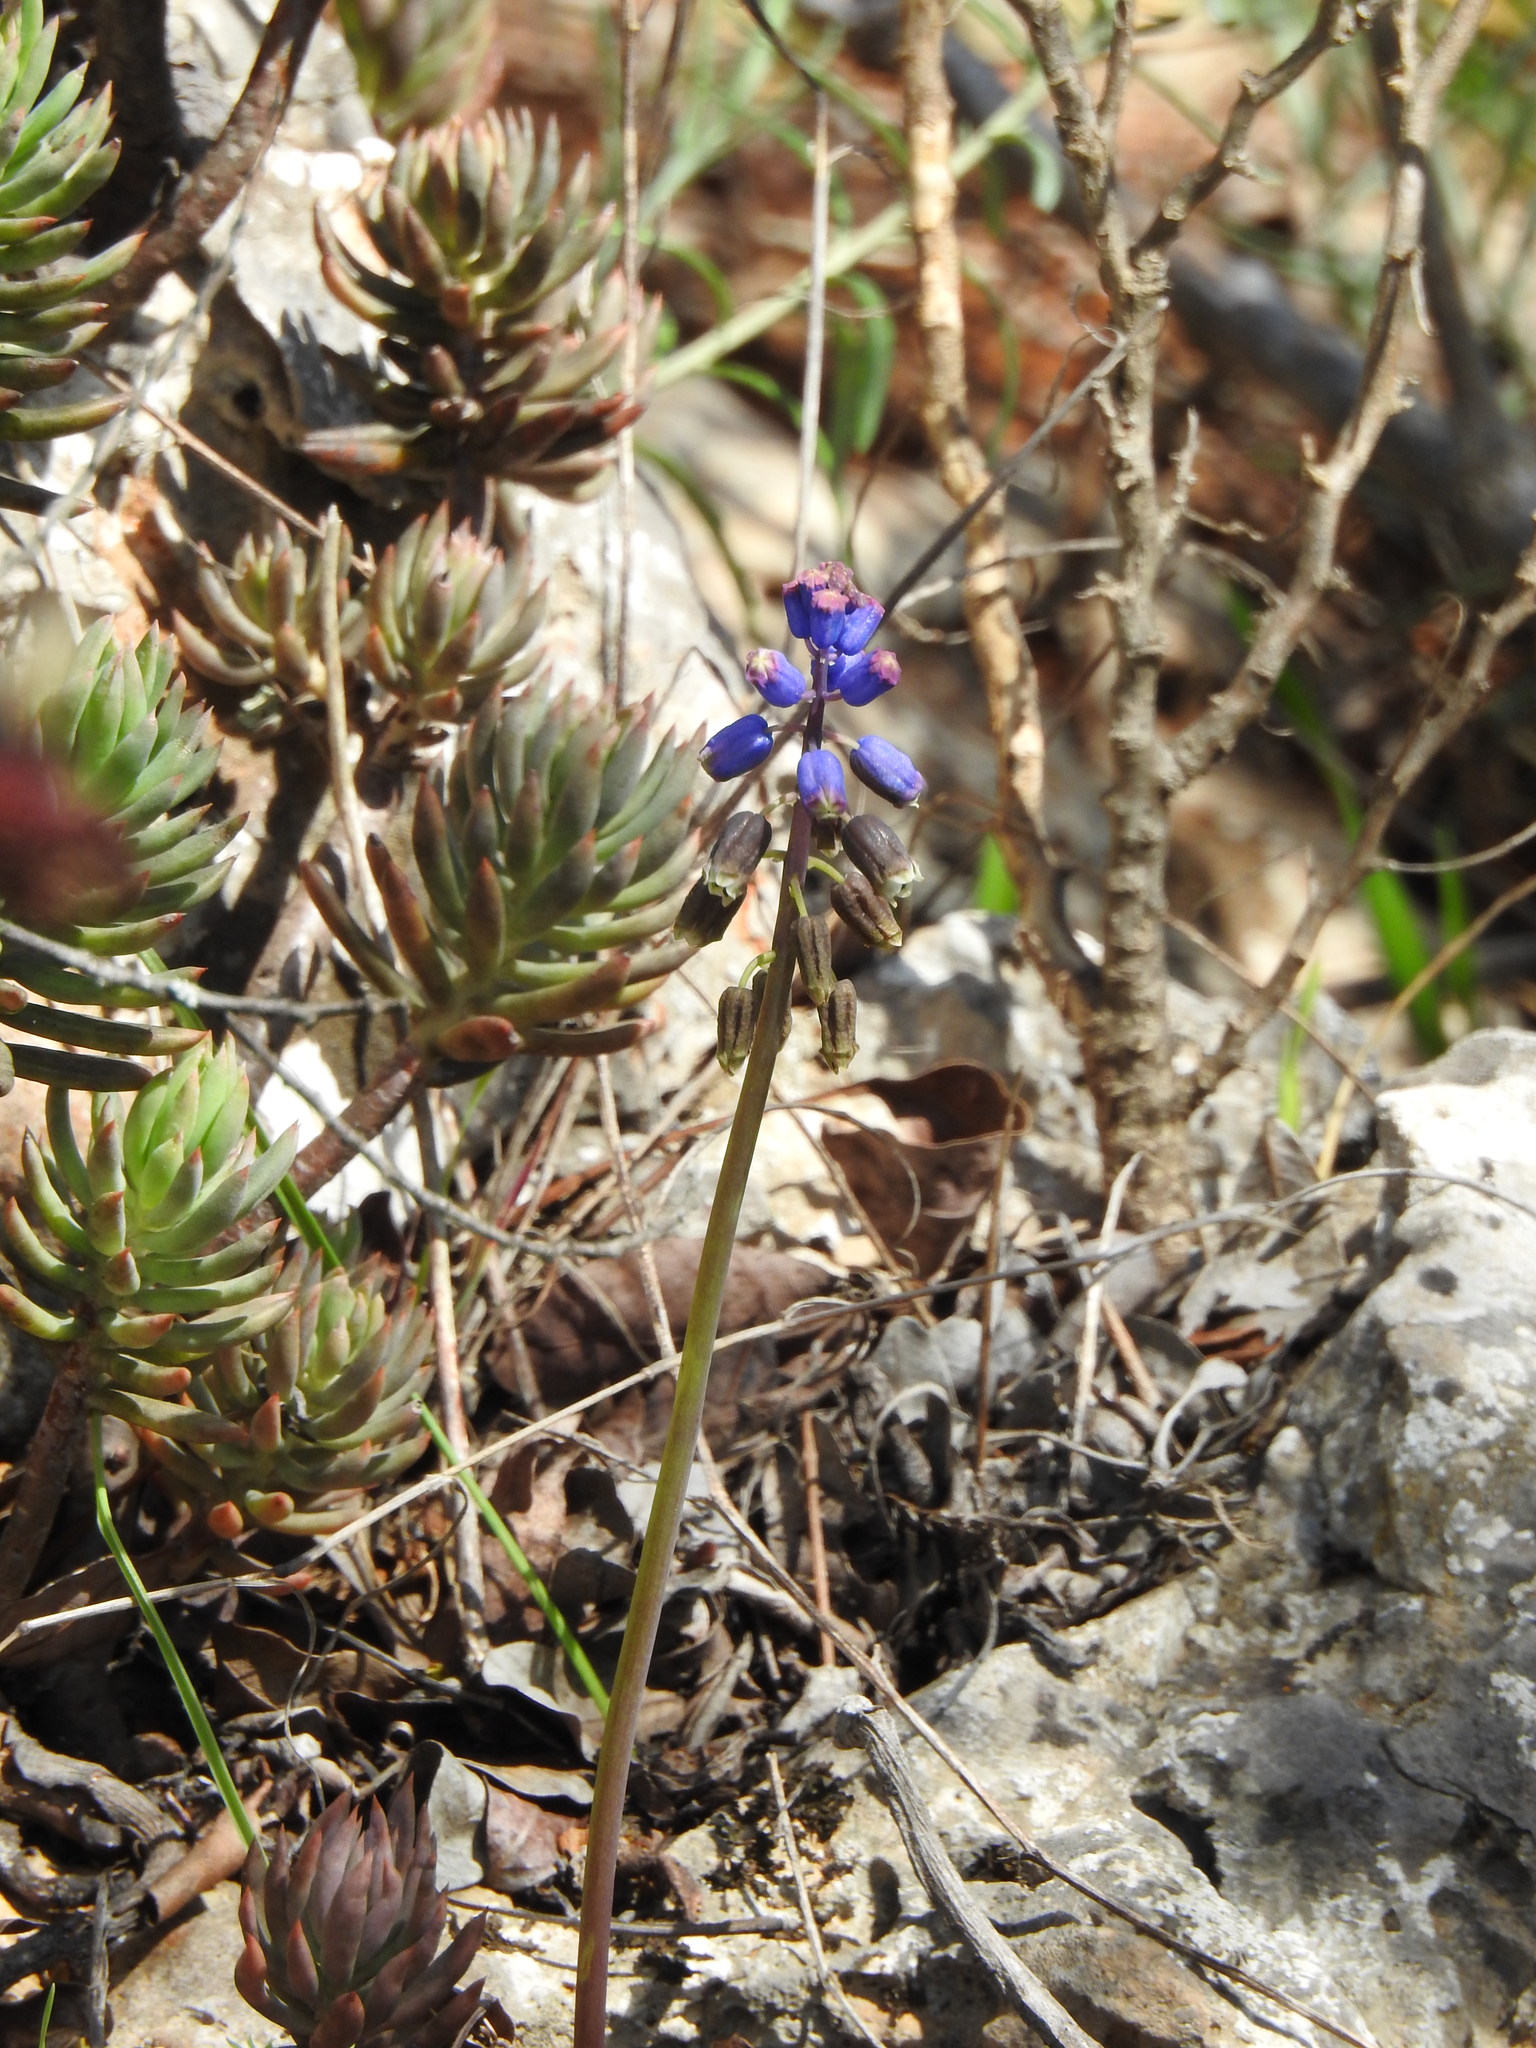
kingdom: Plantae
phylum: Tracheophyta
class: Liliopsida
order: Asparagales
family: Asparagaceae
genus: Bellevalia
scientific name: Bellevalia dubia
